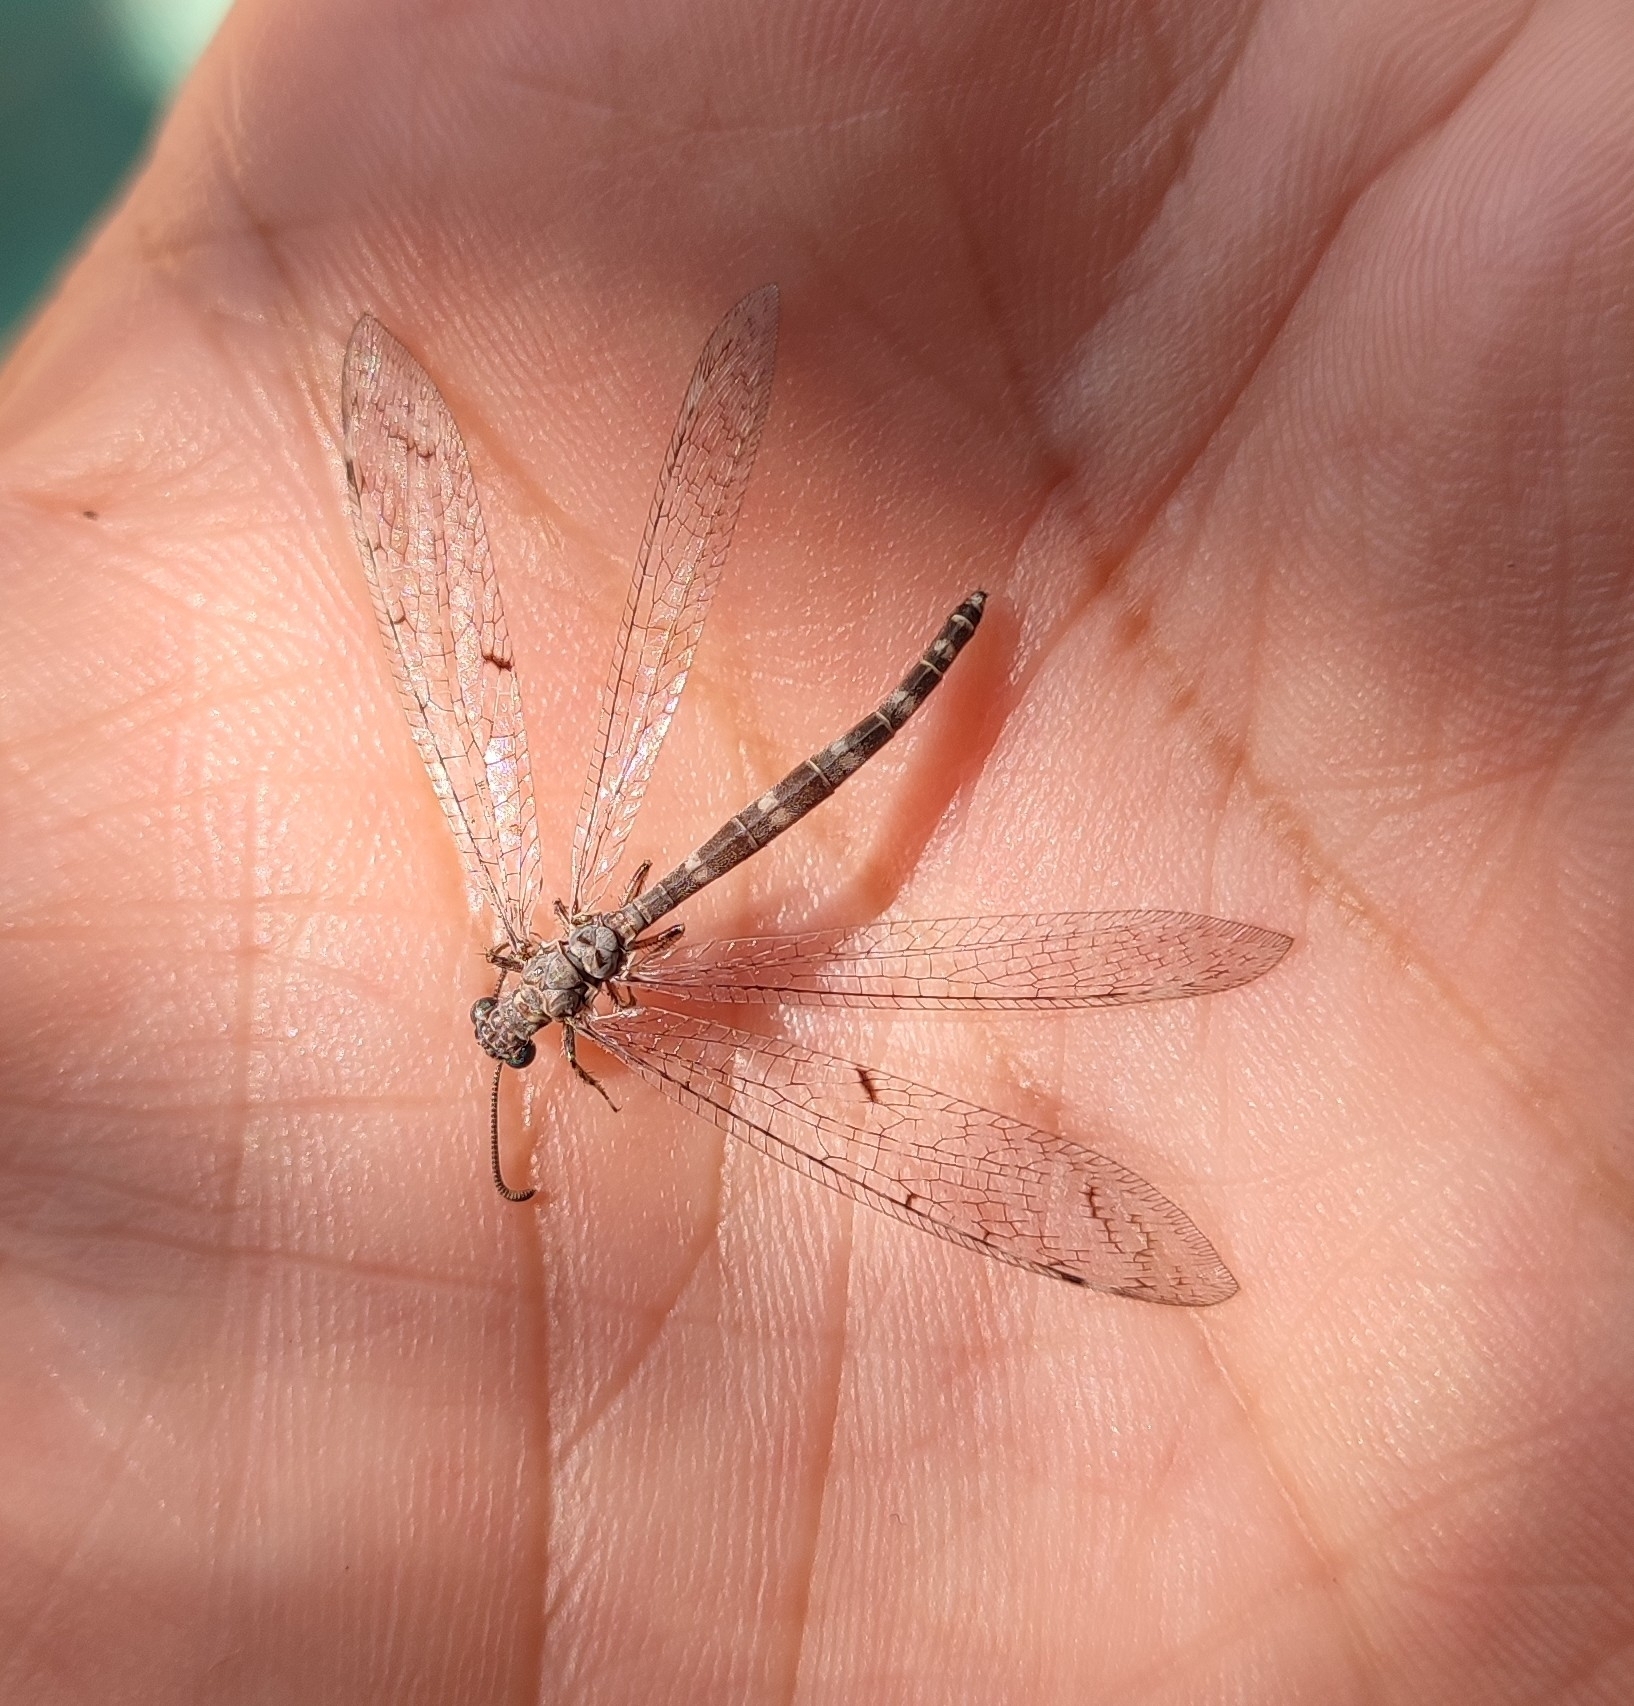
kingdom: Animalia
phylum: Arthropoda
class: Insecta
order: Neuroptera
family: Myrmeleontidae
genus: Neuroleon
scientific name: Neuroleon egenus
